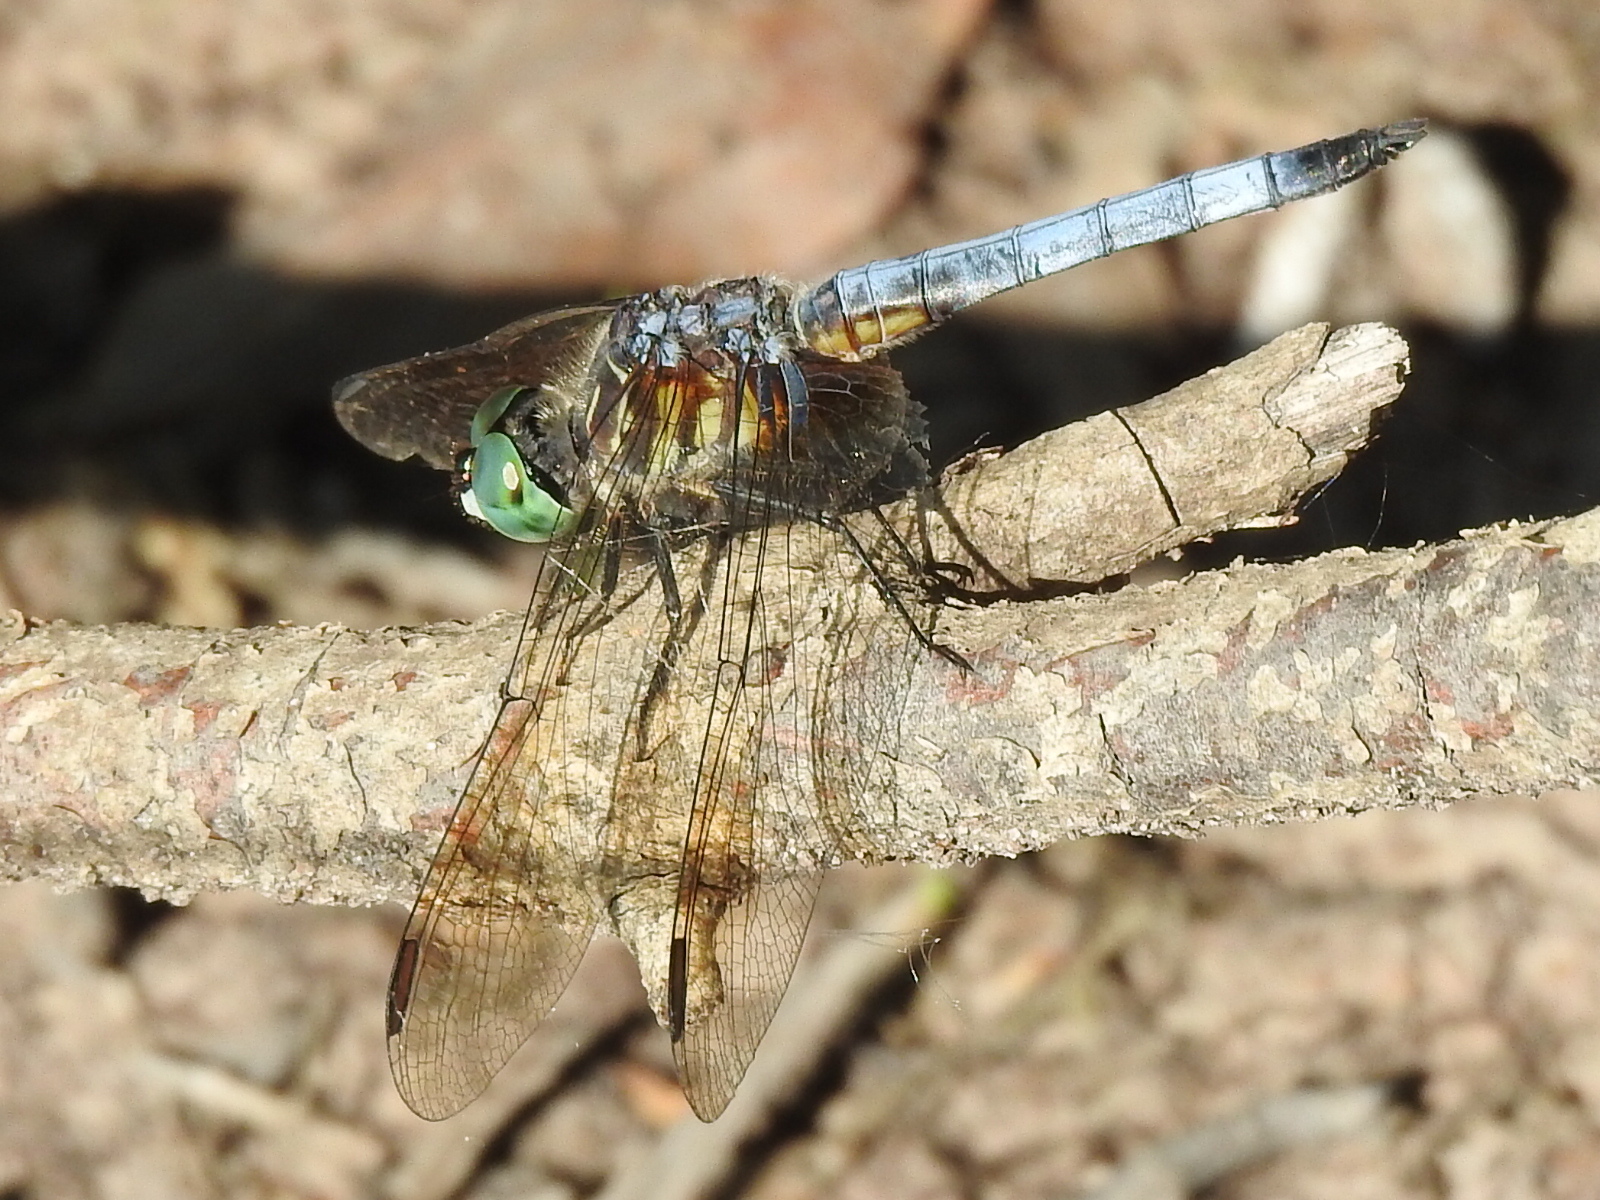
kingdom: Animalia
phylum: Arthropoda
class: Insecta
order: Odonata
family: Libellulidae
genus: Pachydiplax
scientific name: Pachydiplax longipennis
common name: Blue dasher
